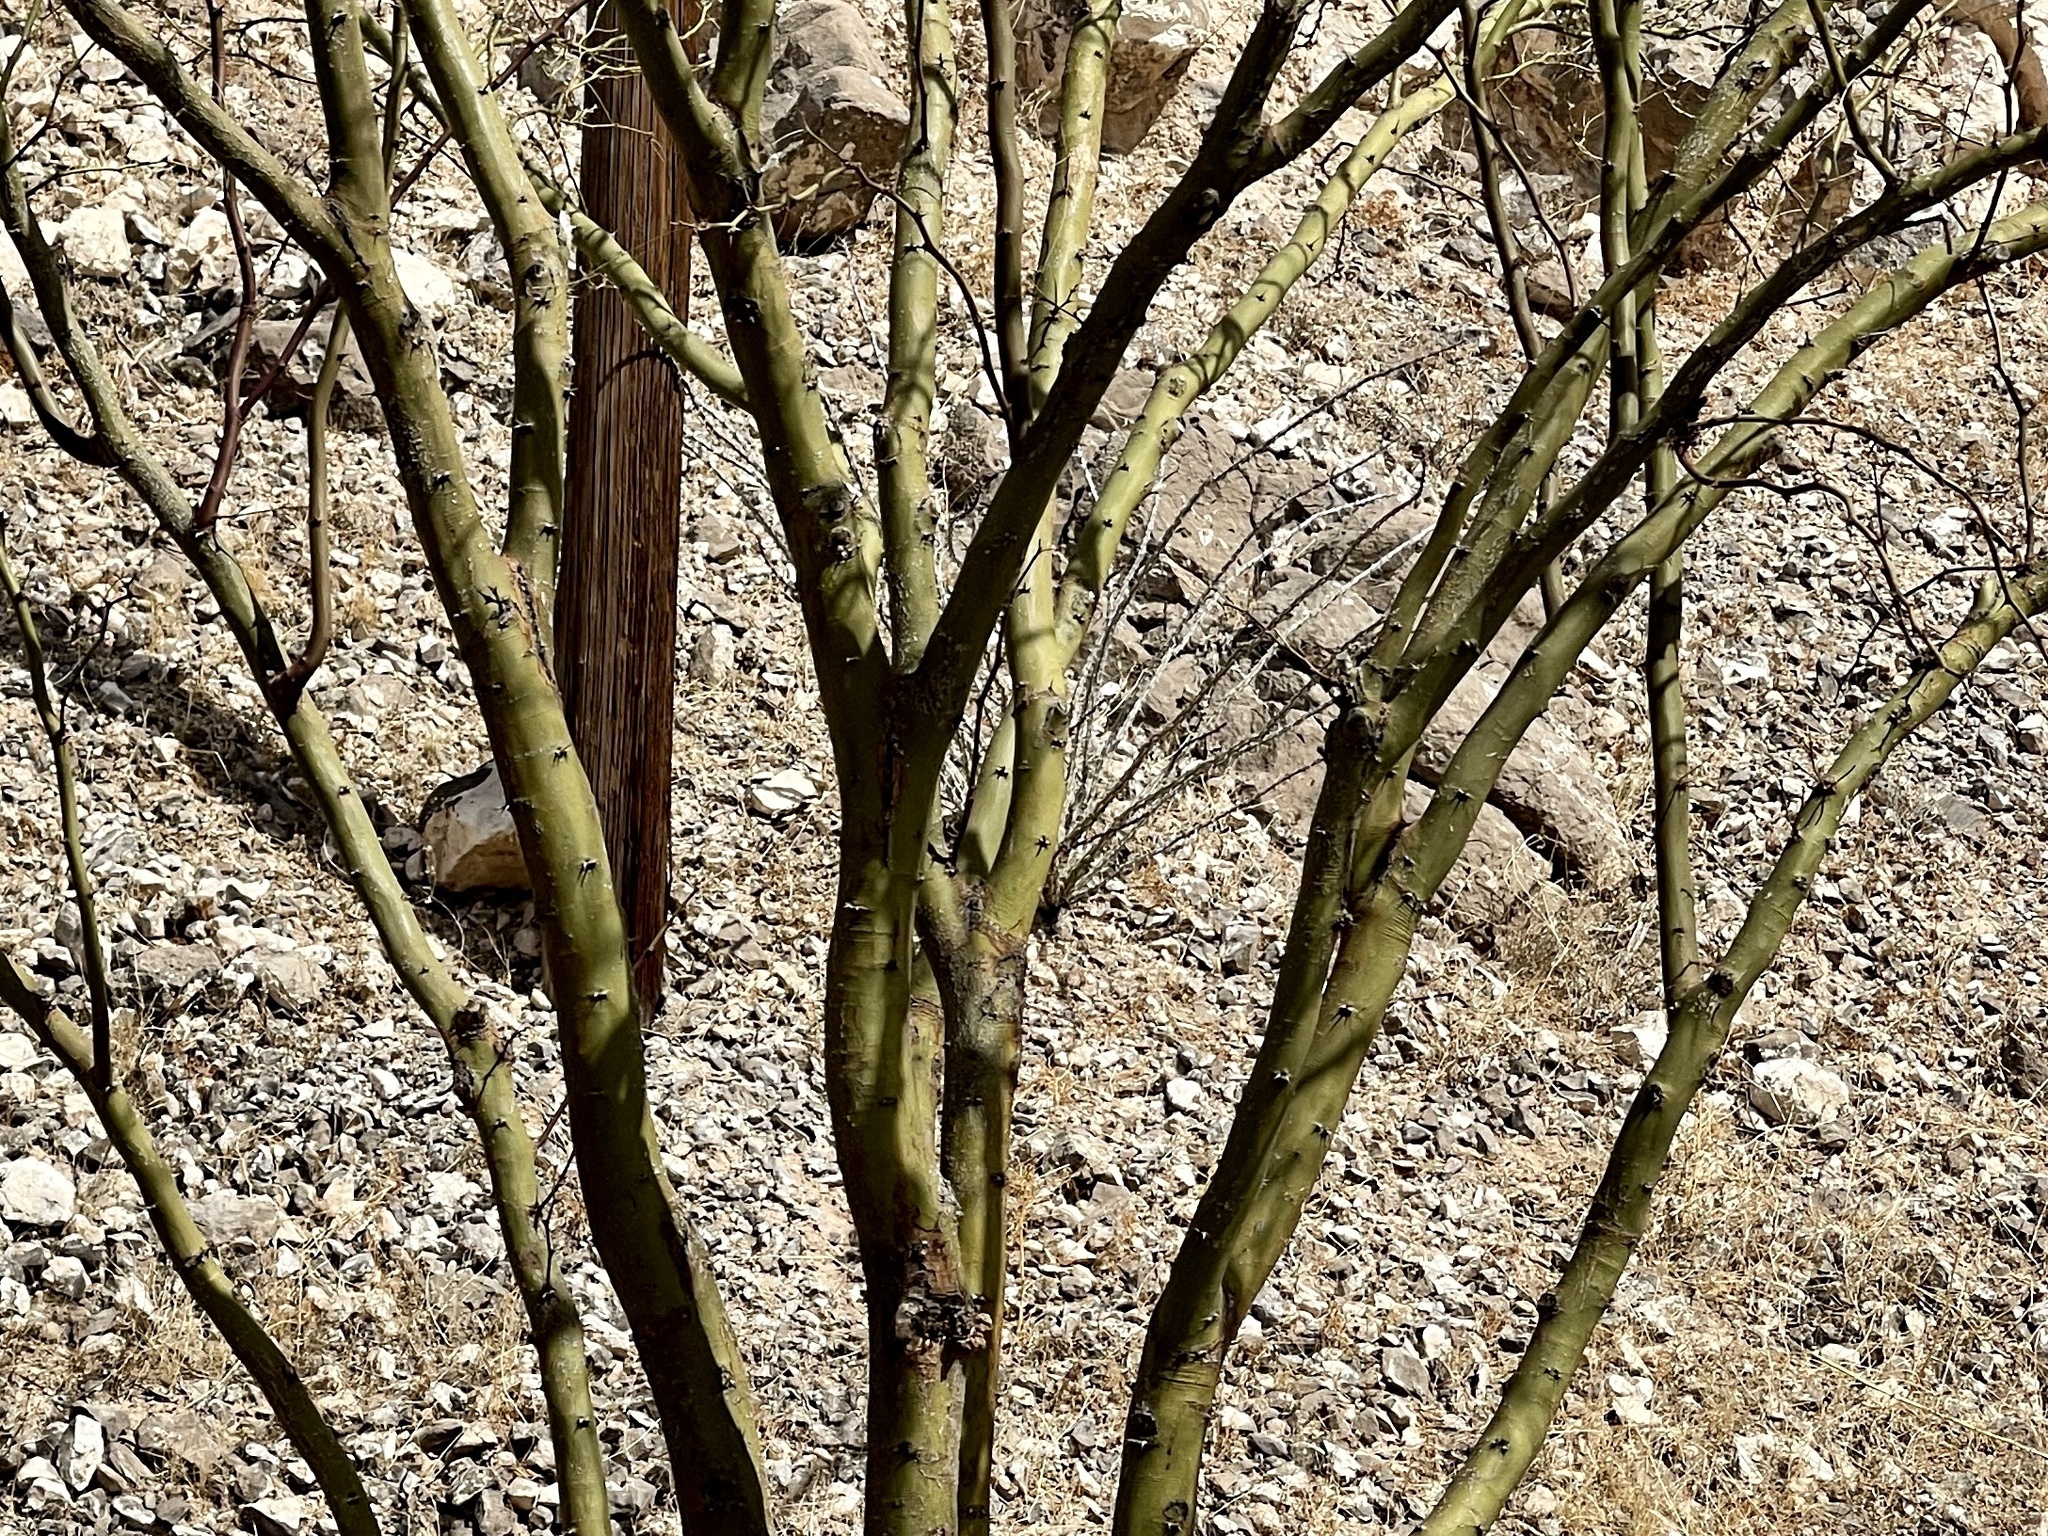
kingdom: Plantae
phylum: Tracheophyta
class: Magnoliopsida
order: Fabales
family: Fabaceae
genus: Parkinsonia
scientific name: Parkinsonia aculeata
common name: Jerusalem thorn
